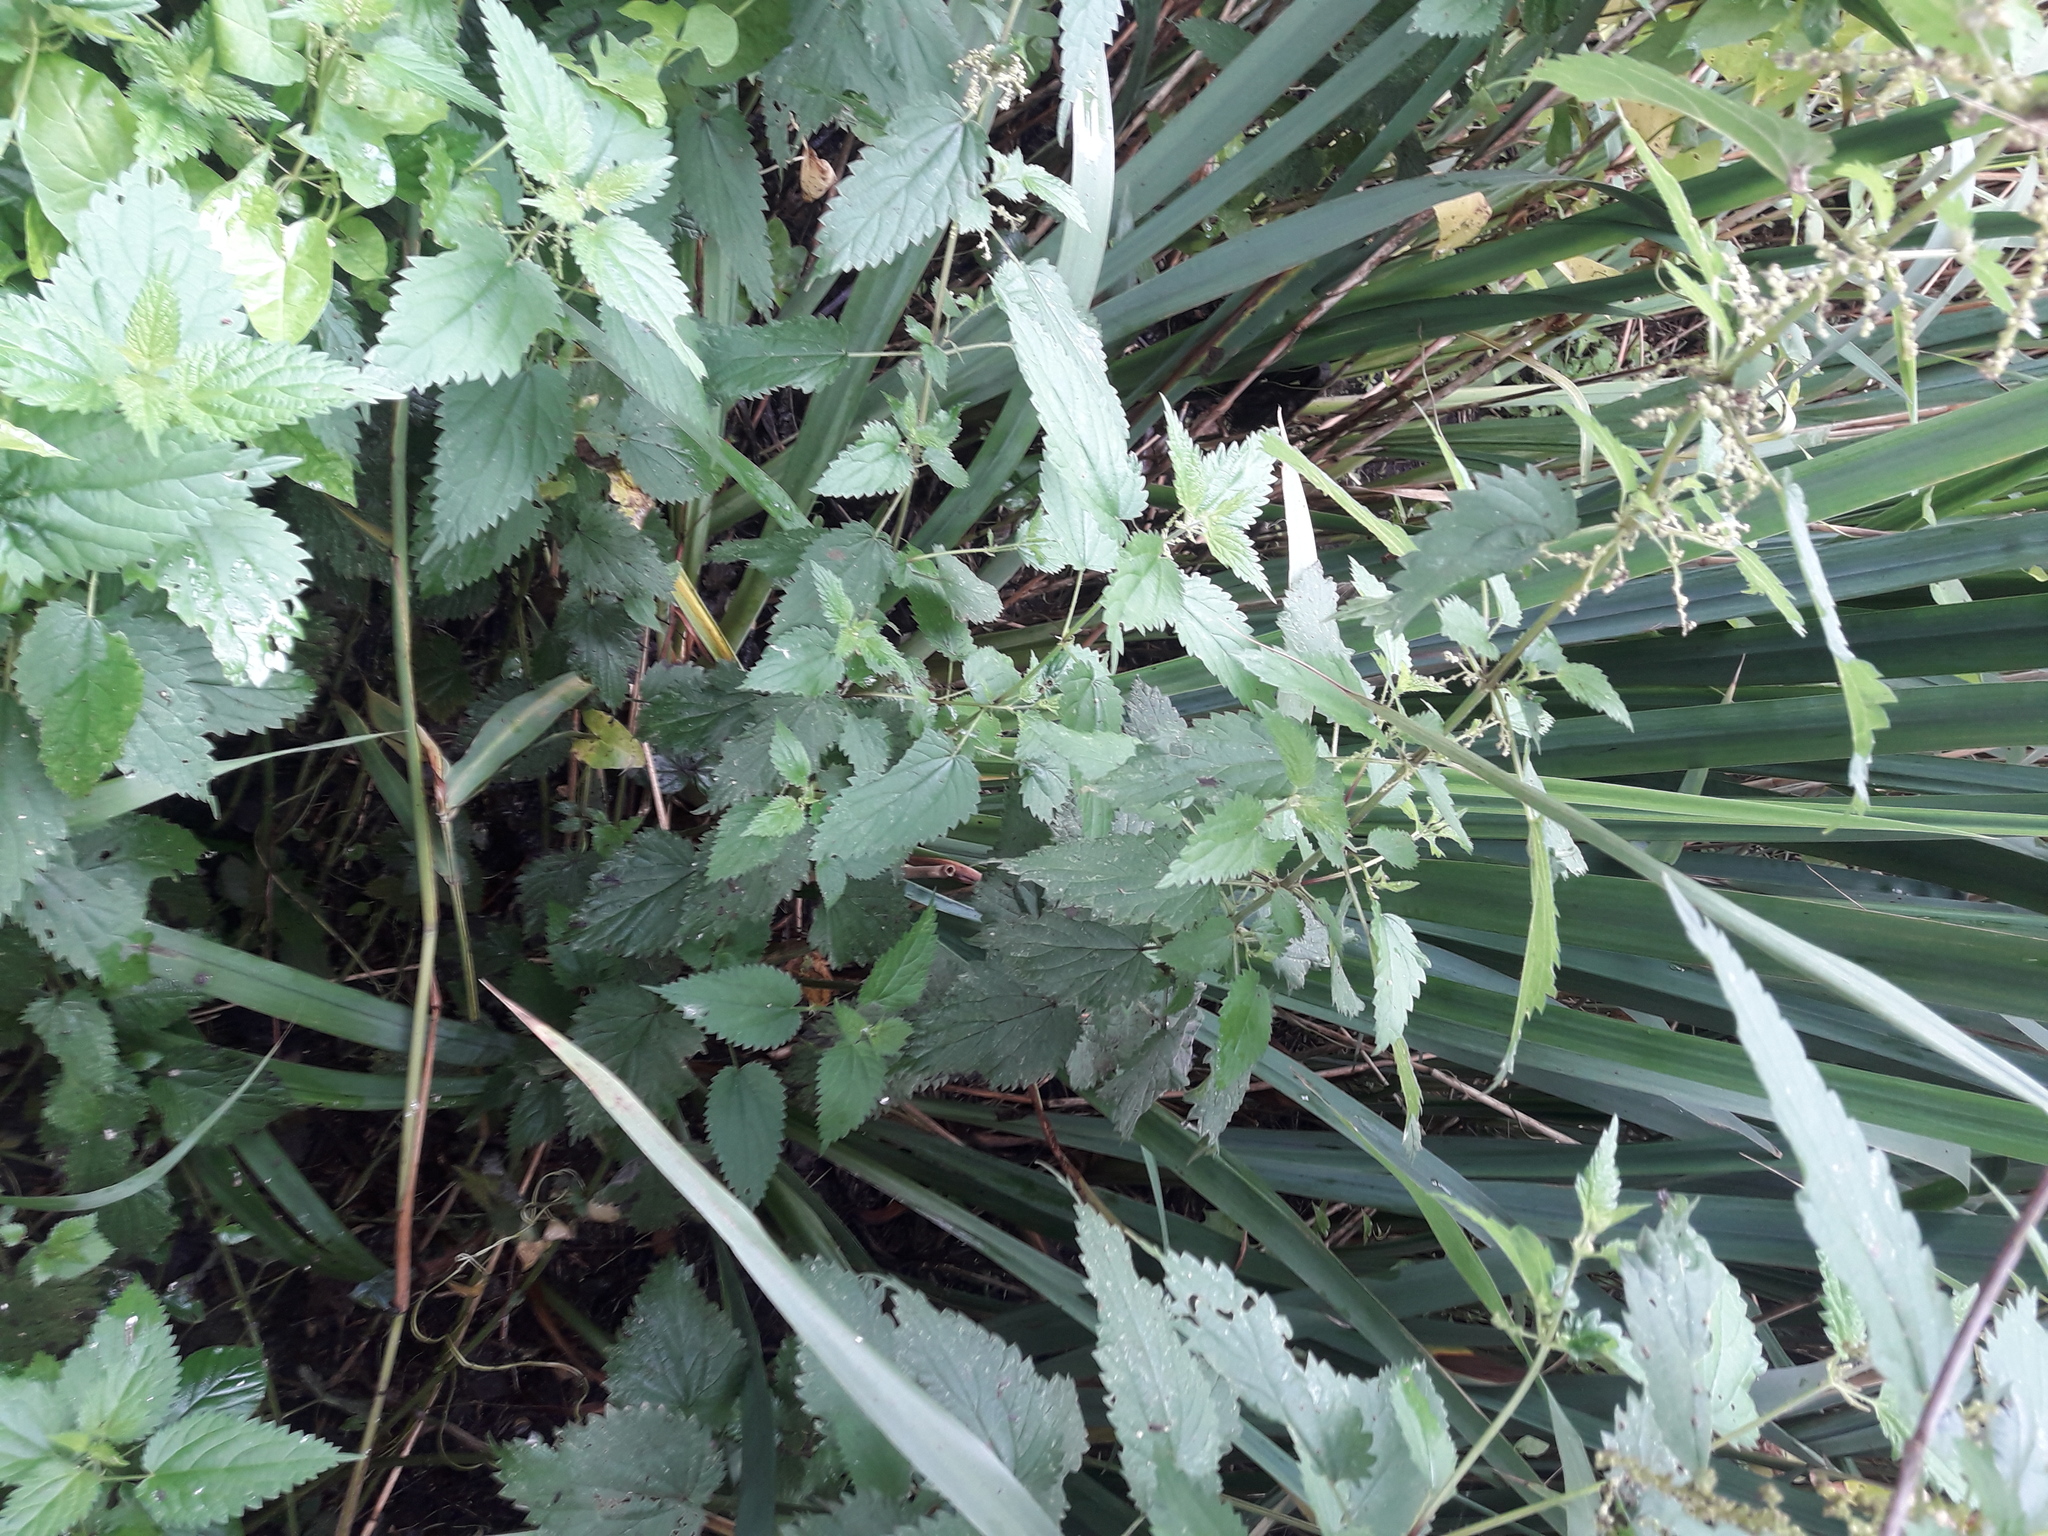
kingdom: Plantae
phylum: Tracheophyta
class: Liliopsida
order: Asparagales
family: Iridaceae
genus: Iris
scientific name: Iris pseudacorus
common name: Yellow flag
